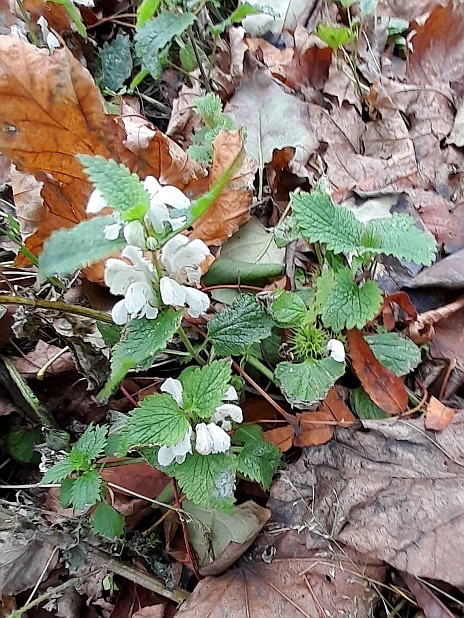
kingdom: Plantae
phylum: Tracheophyta
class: Magnoliopsida
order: Lamiales
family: Lamiaceae
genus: Lamium
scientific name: Lamium album
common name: White dead-nettle
